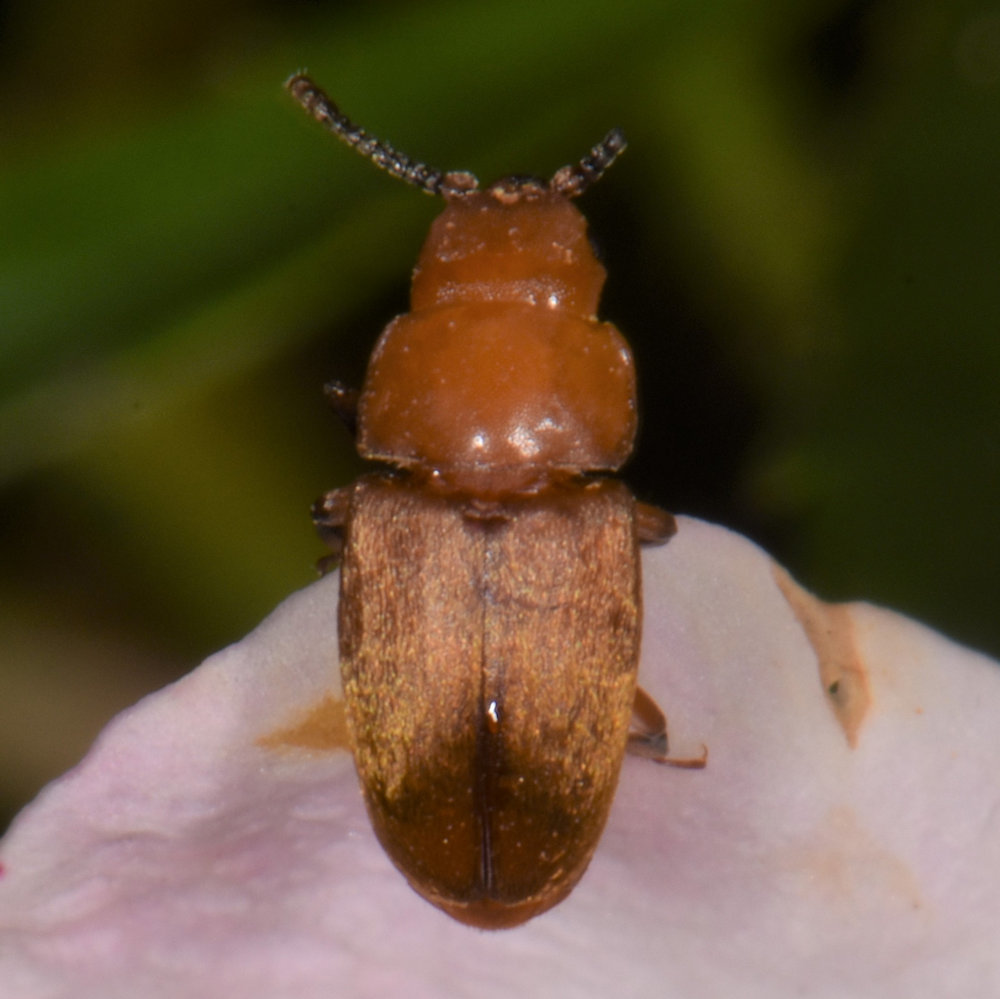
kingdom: Animalia
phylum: Arthropoda
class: Insecta
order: Coleoptera
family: Cryptophagidae
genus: Antherophagus
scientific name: Antherophagus ochraceus
